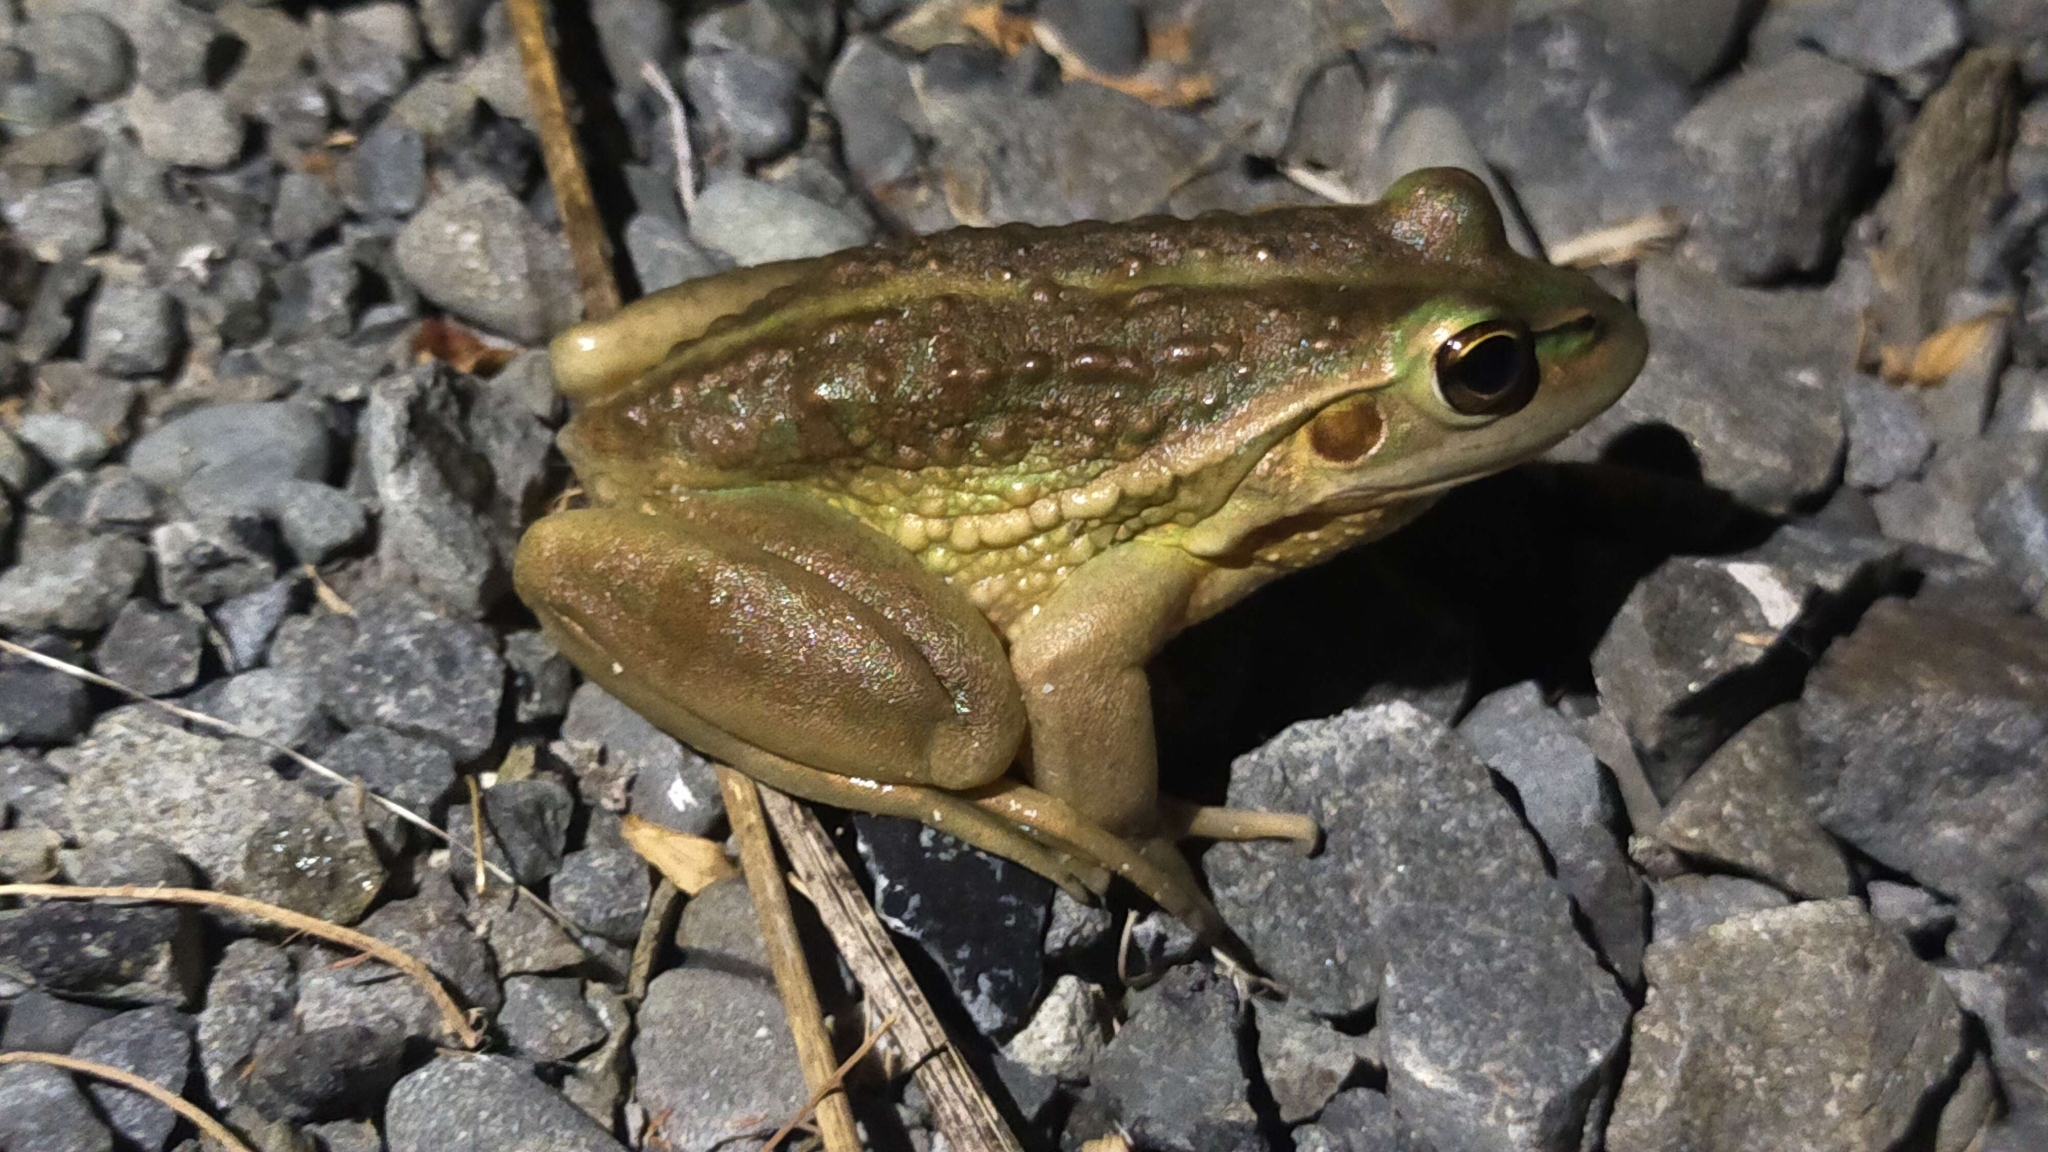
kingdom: Animalia
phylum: Chordata
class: Amphibia
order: Anura
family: Pelodryadidae
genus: Ranoidea
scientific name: Ranoidea raniformis
